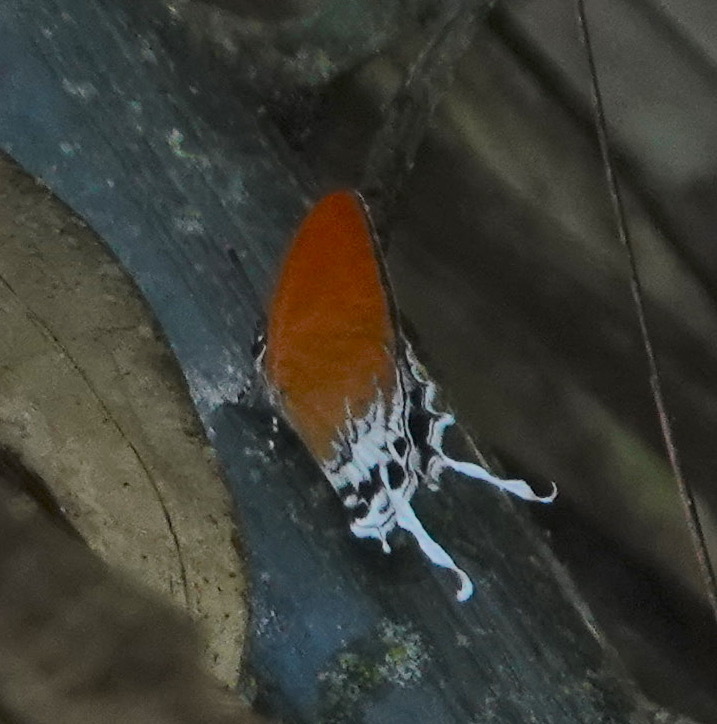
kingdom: Animalia
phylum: Arthropoda
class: Insecta
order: Lepidoptera
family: Lycaenidae
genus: Eooxylides
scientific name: Eooxylides tharis
